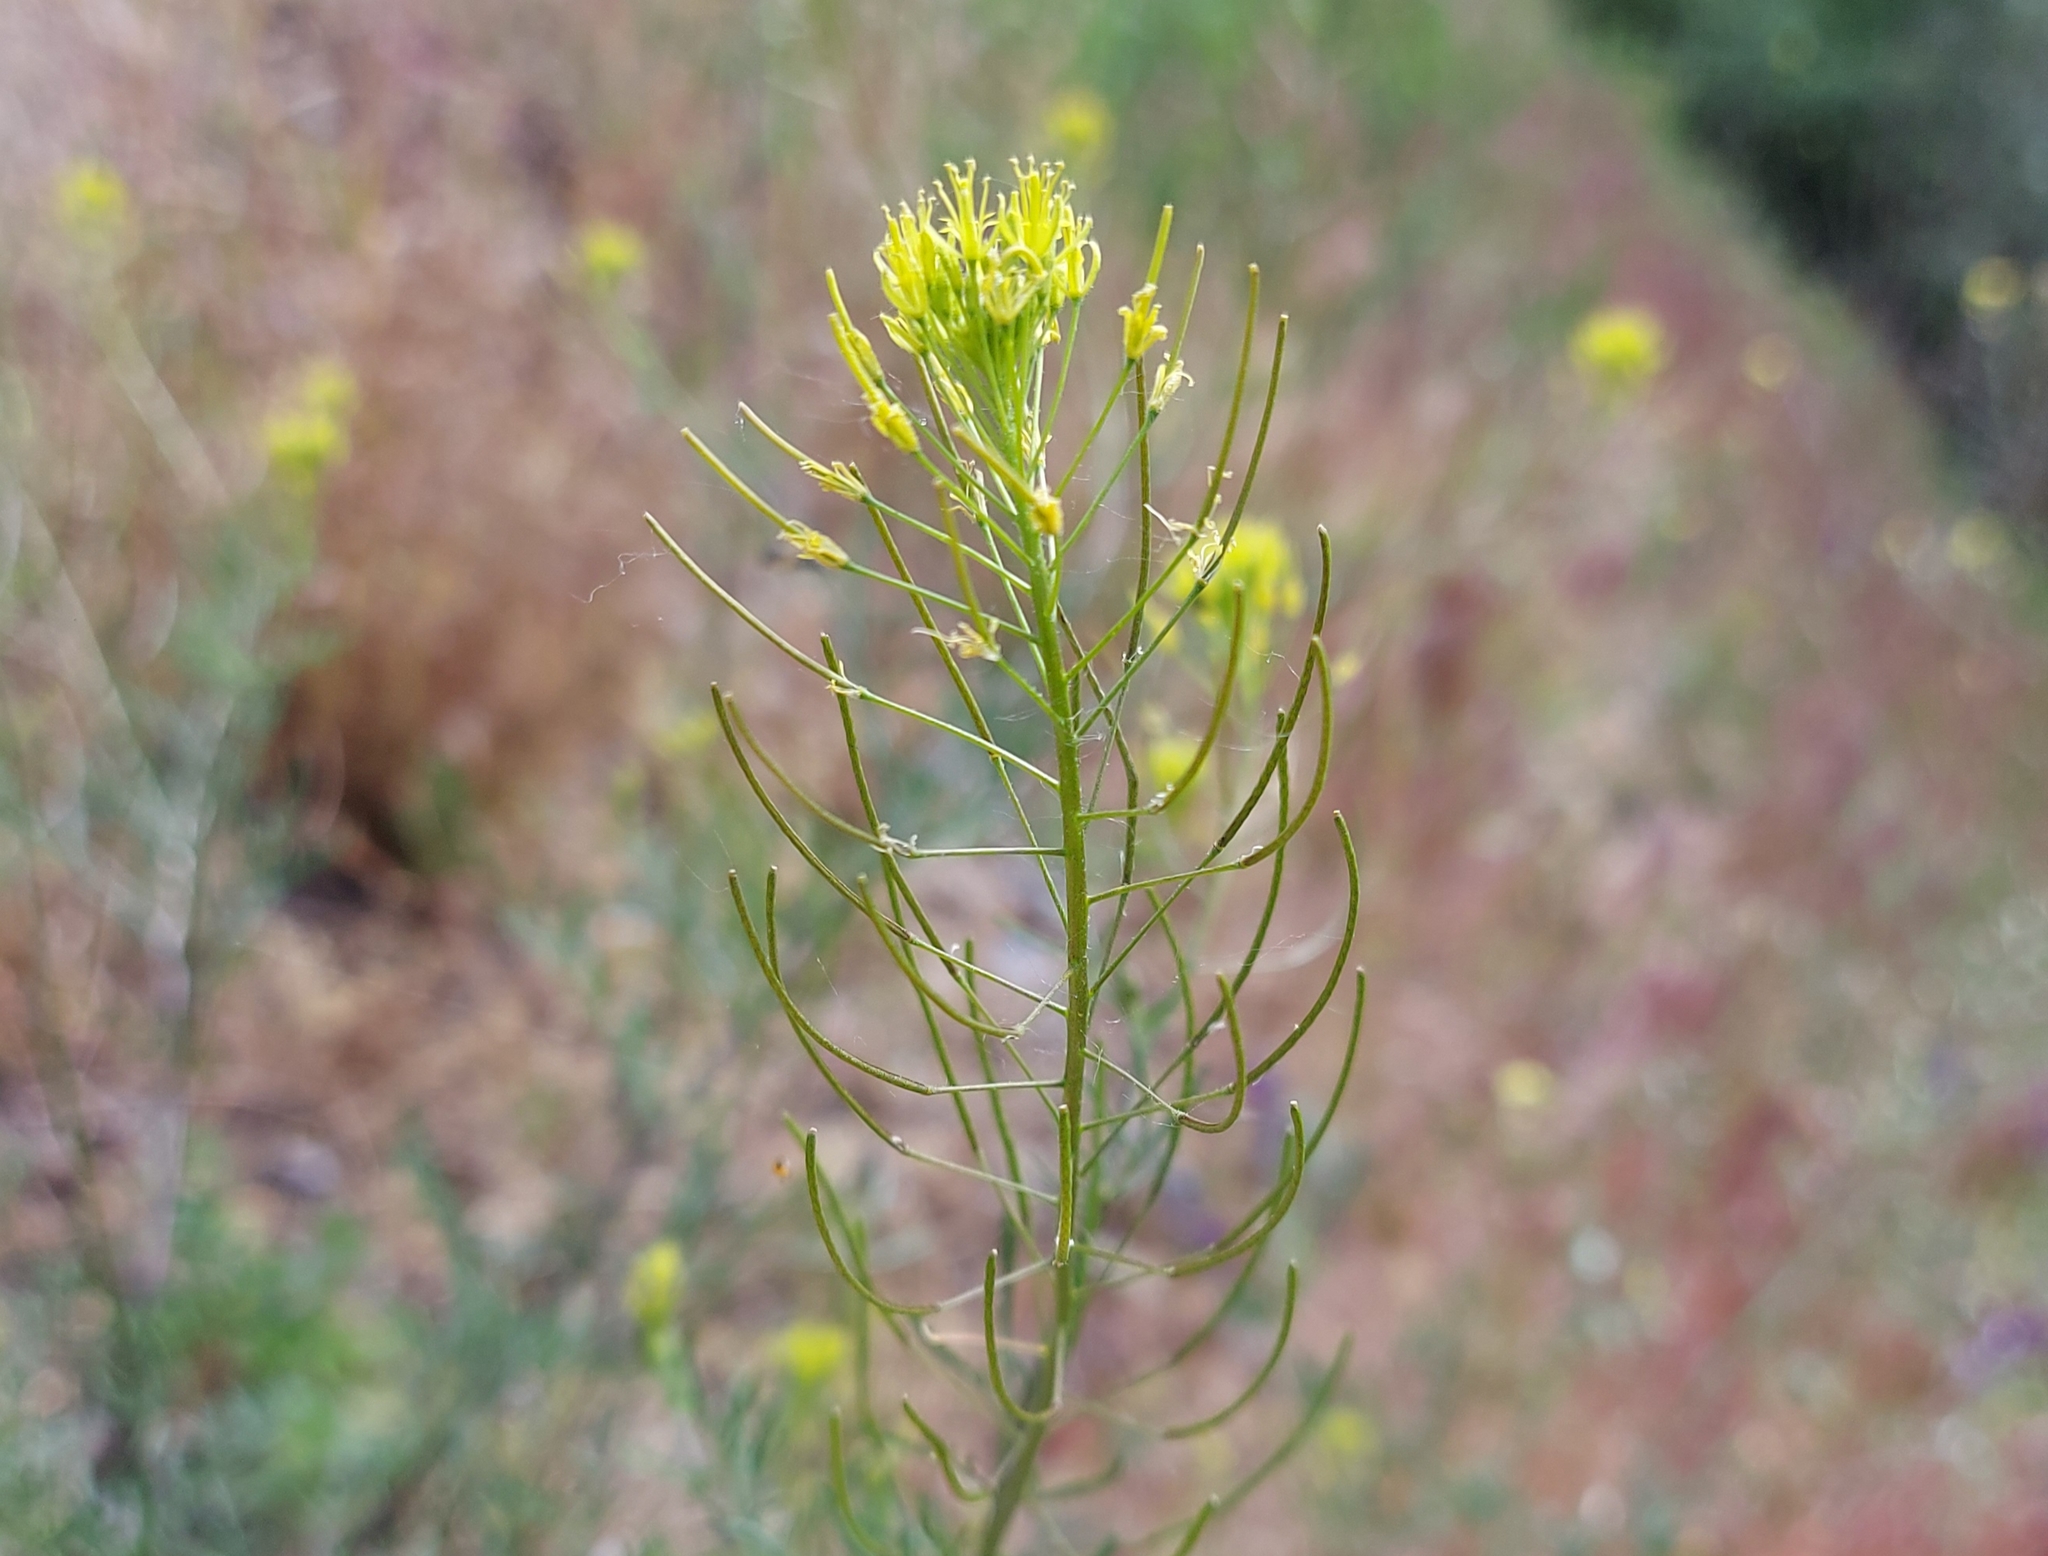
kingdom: Plantae
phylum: Tracheophyta
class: Magnoliopsida
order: Brassicales
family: Brassicaceae
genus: Descurainia
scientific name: Descurainia sophia
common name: Flixweed
